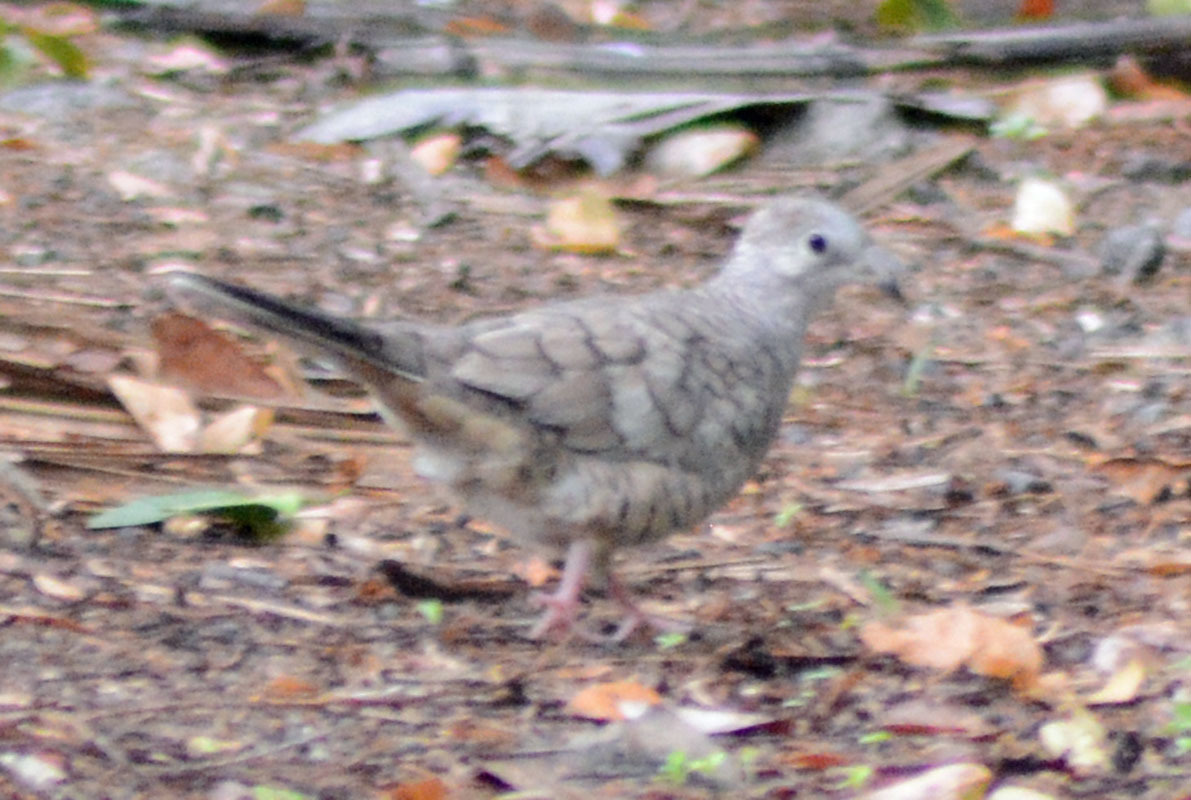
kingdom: Animalia
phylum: Chordata
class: Aves
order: Columbiformes
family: Columbidae
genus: Columbina
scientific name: Columbina inca
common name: Inca dove
